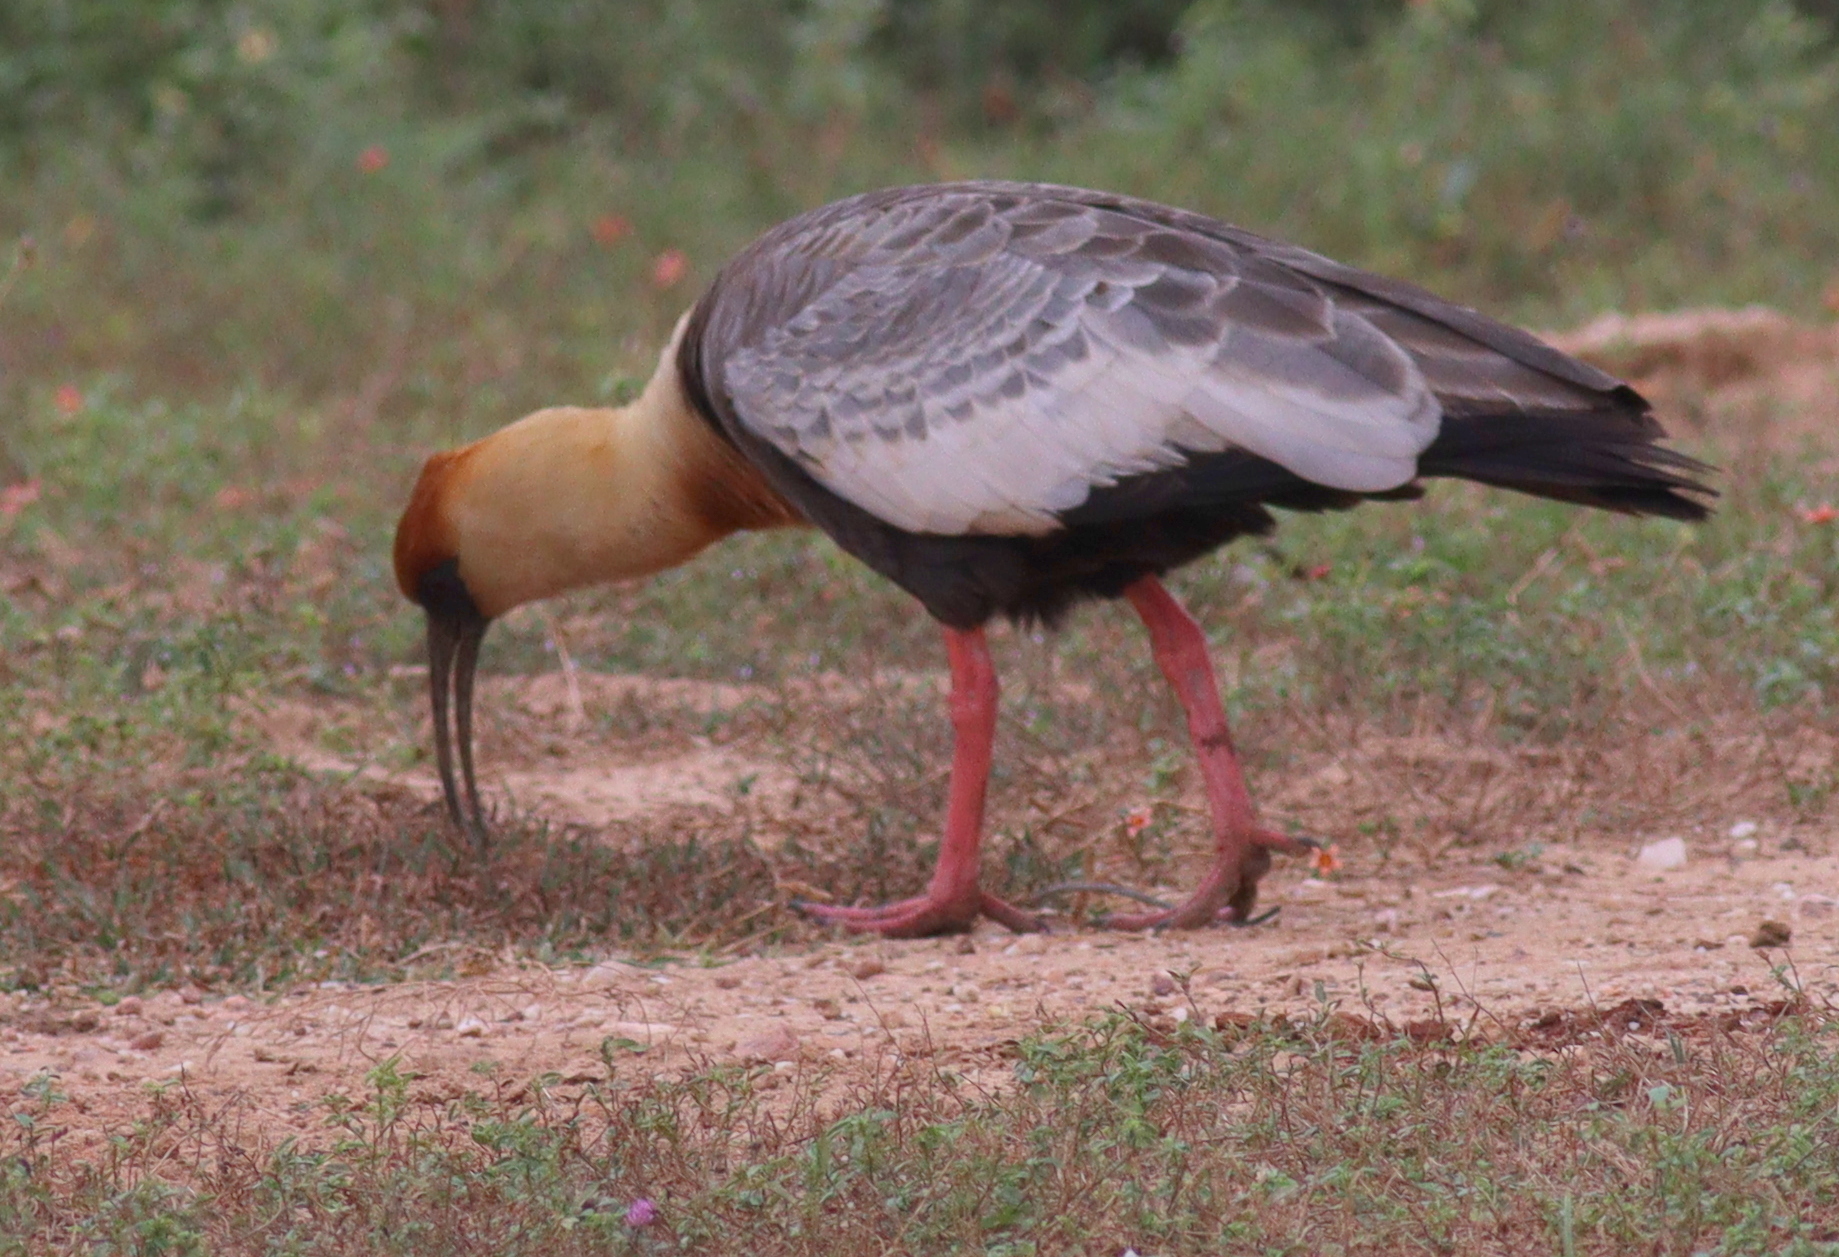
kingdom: Animalia
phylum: Chordata
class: Aves
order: Pelecaniformes
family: Threskiornithidae
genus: Theristicus
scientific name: Theristicus caudatus
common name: Buff-necked ibis
